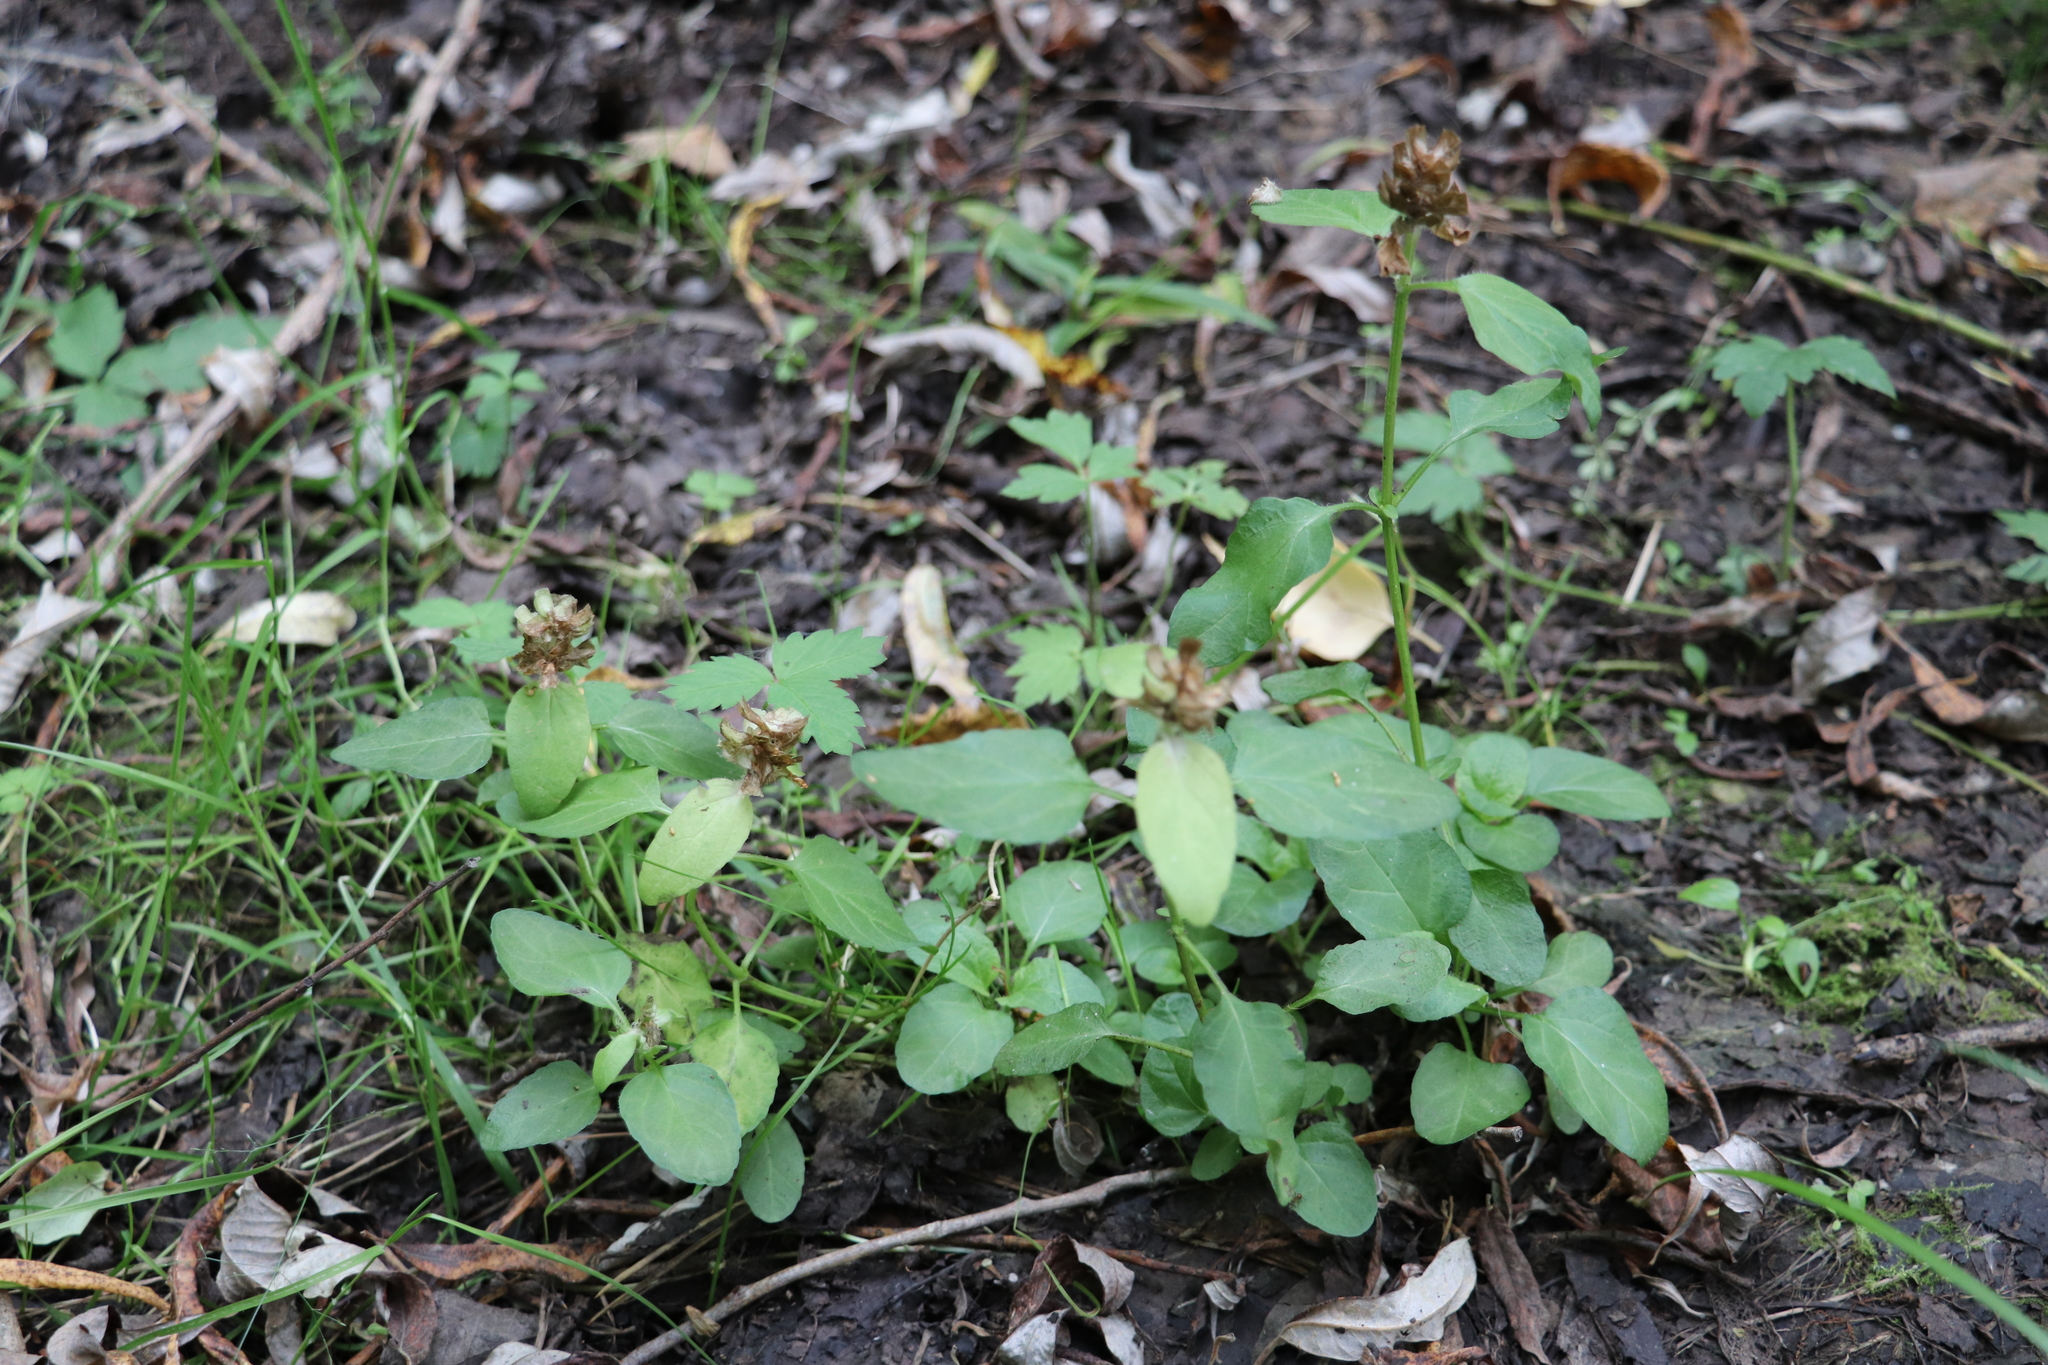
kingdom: Plantae
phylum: Tracheophyta
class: Magnoliopsida
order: Lamiales
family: Lamiaceae
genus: Prunella
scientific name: Prunella vulgaris
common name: Heal-all
